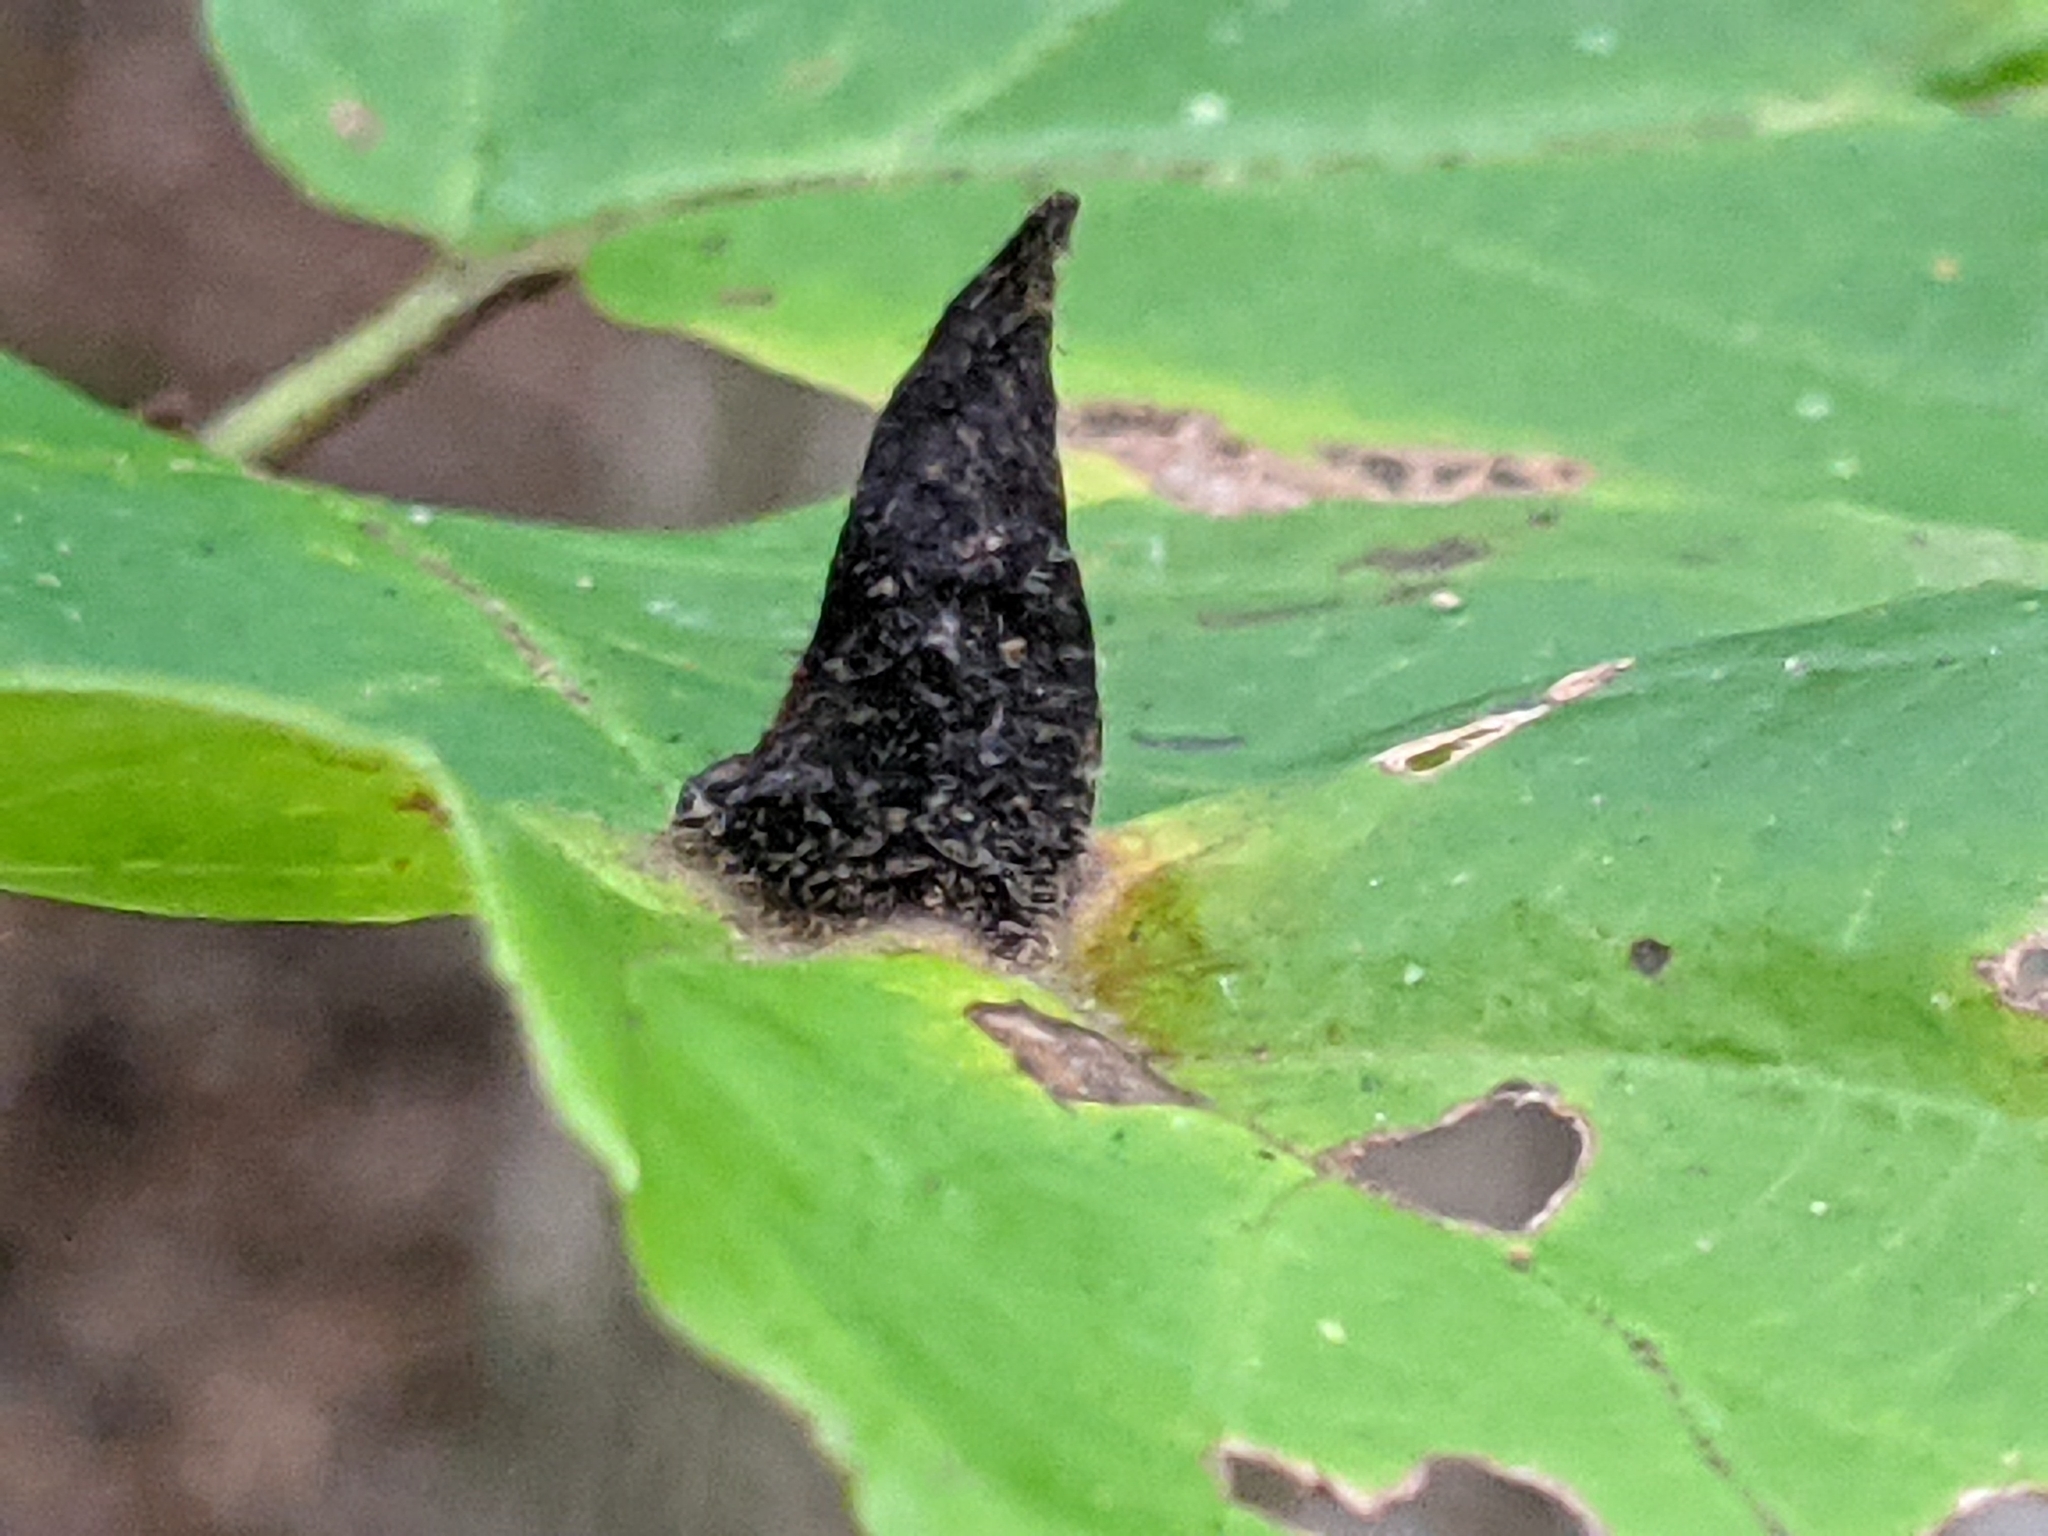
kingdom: Animalia
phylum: Arthropoda
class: Insecta
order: Hemiptera
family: Aphididae
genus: Hormaphis
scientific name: Hormaphis hamamelidis
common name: Witch-hazel cone gall aphid
